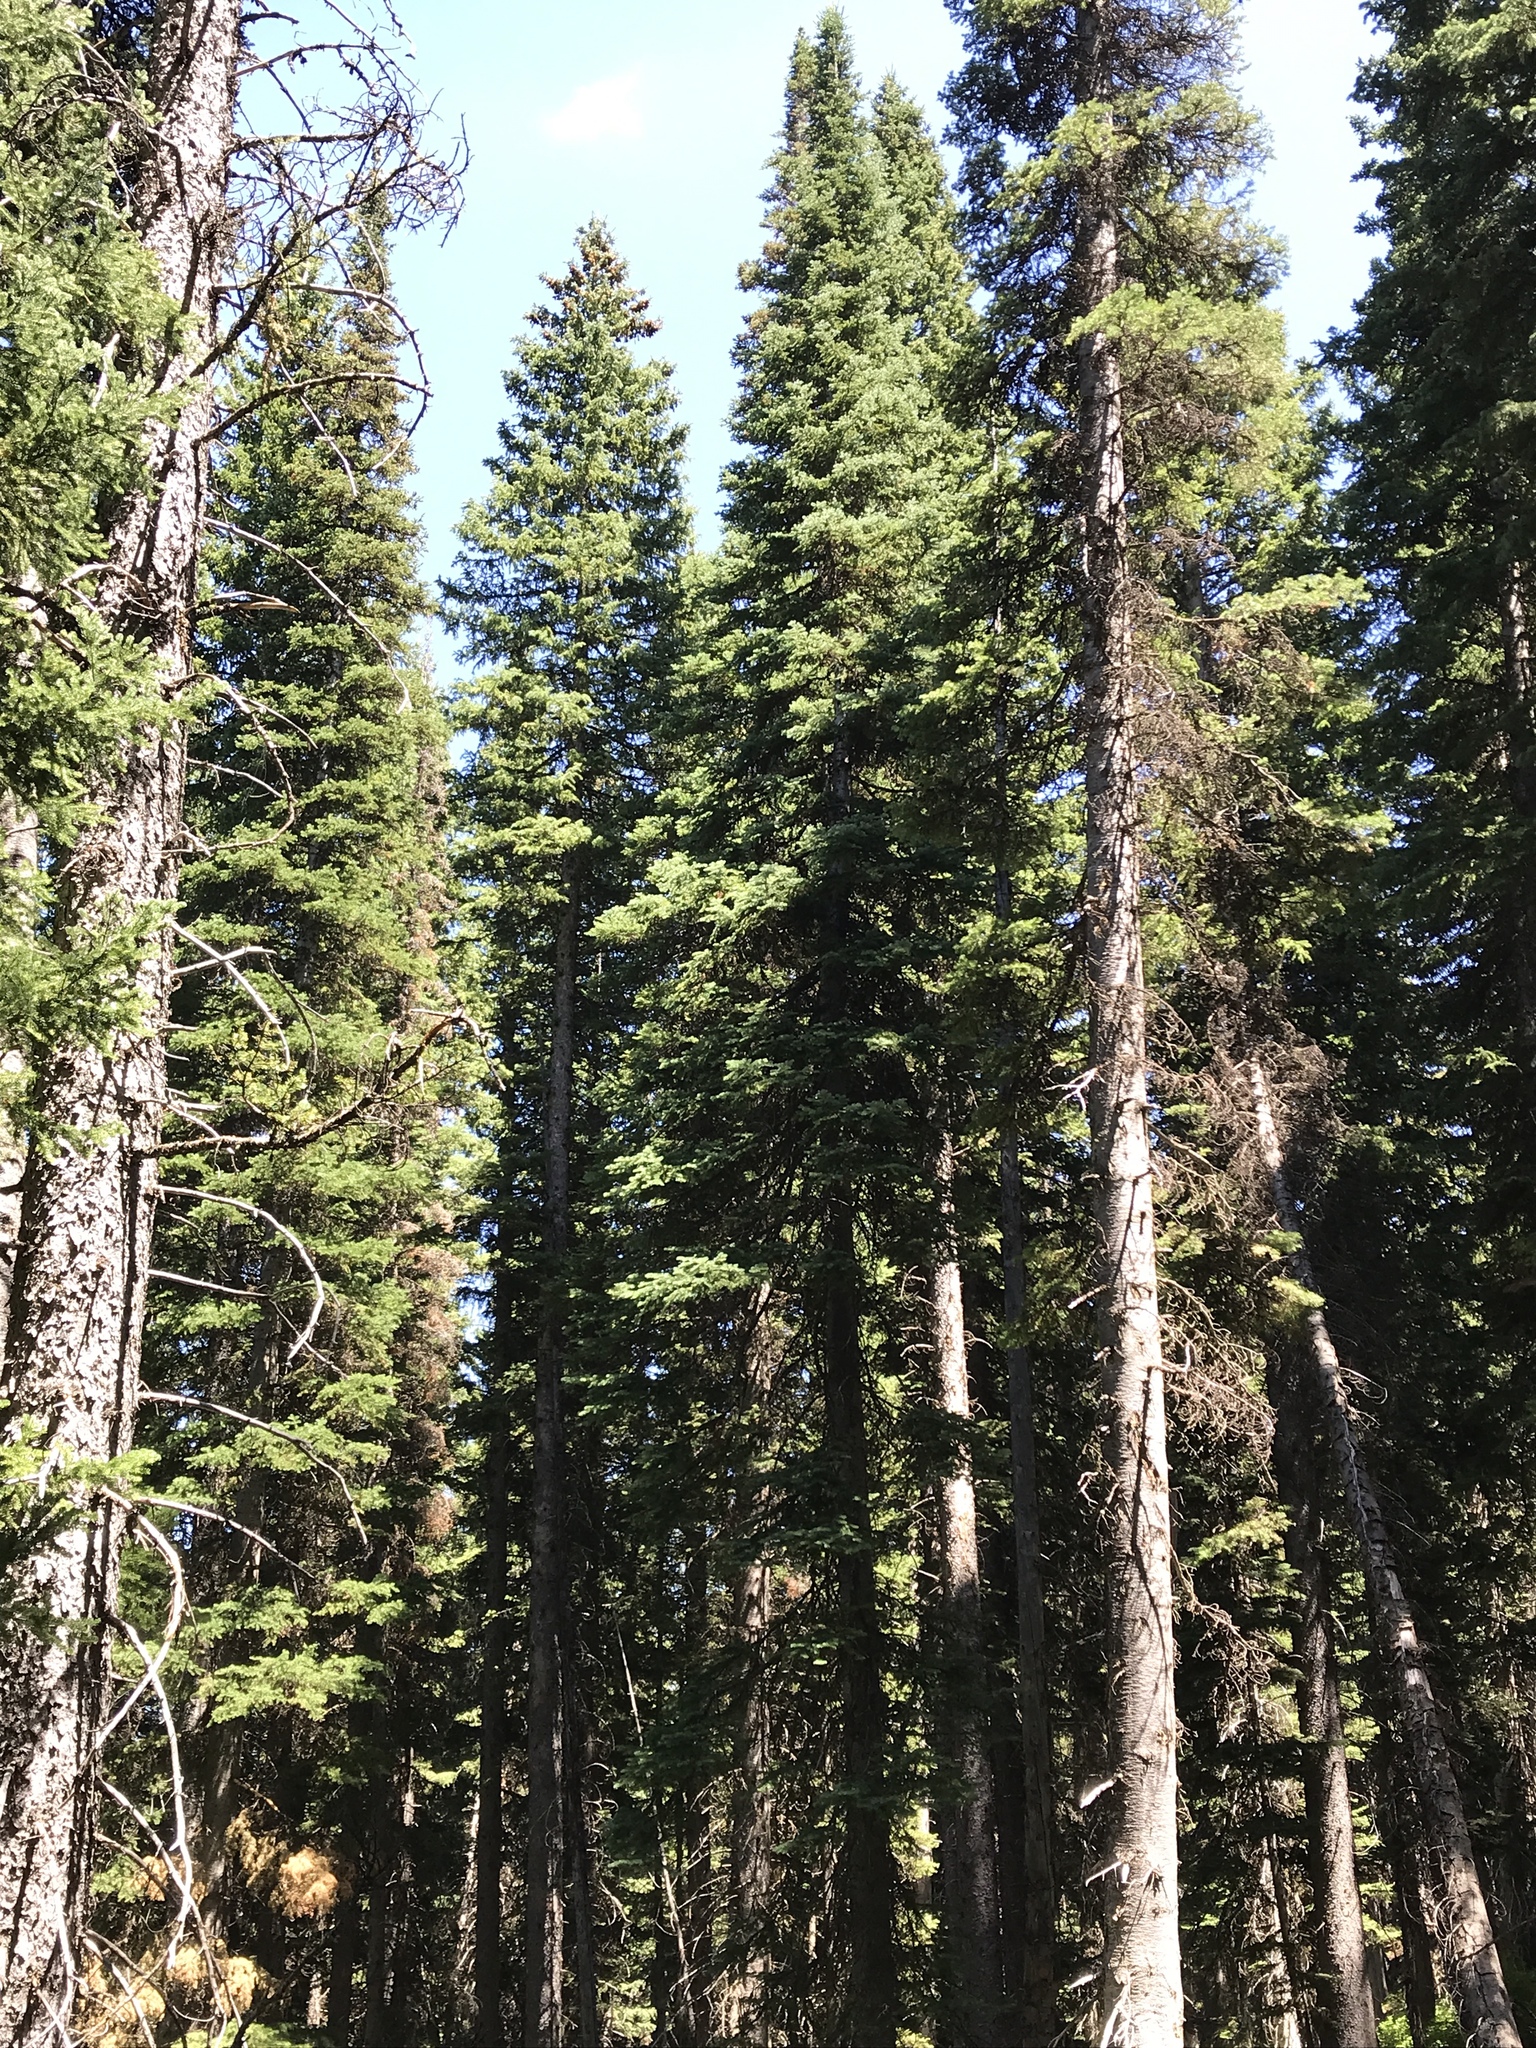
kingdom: Plantae
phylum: Tracheophyta
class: Pinopsida
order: Pinales
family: Pinaceae
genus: Picea
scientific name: Picea engelmannii
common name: Engelmann spruce
